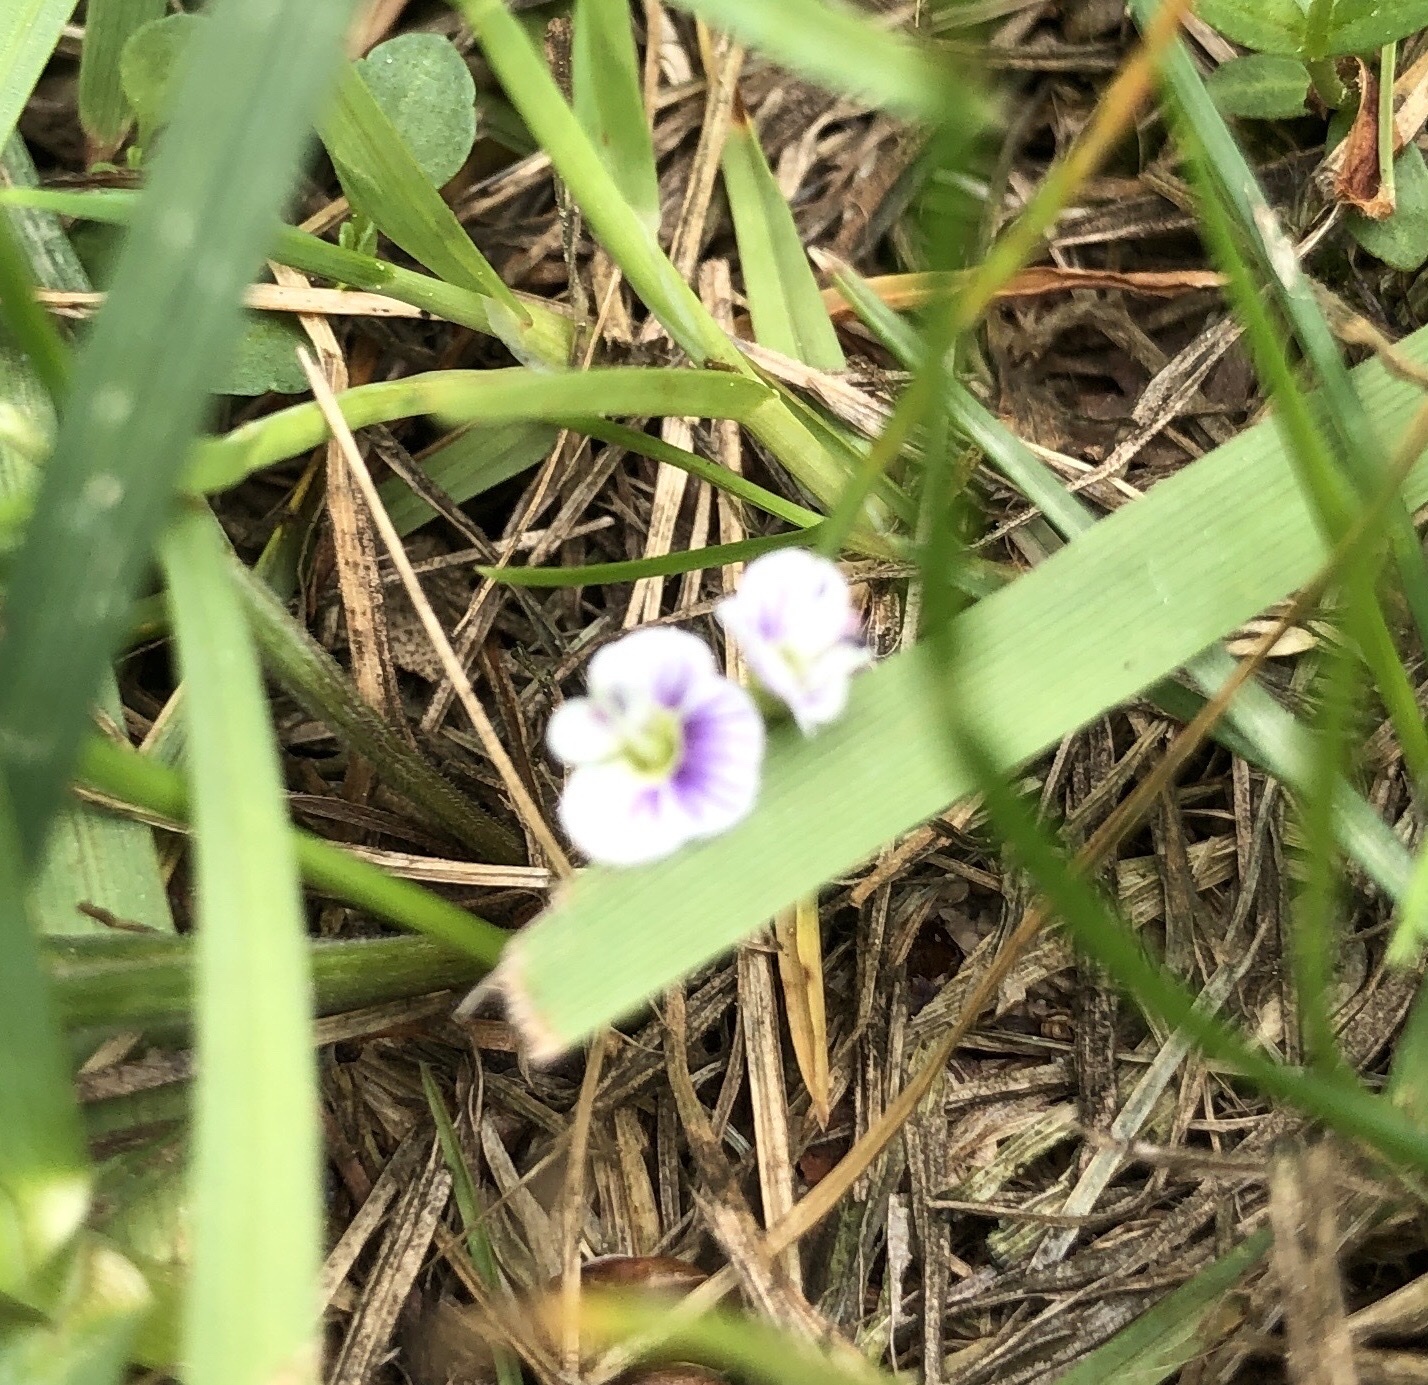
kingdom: Plantae
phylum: Tracheophyta
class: Magnoliopsida
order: Lamiales
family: Plantaginaceae
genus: Veronica
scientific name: Veronica serpyllifolia
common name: Thyme-leaved speedwell
